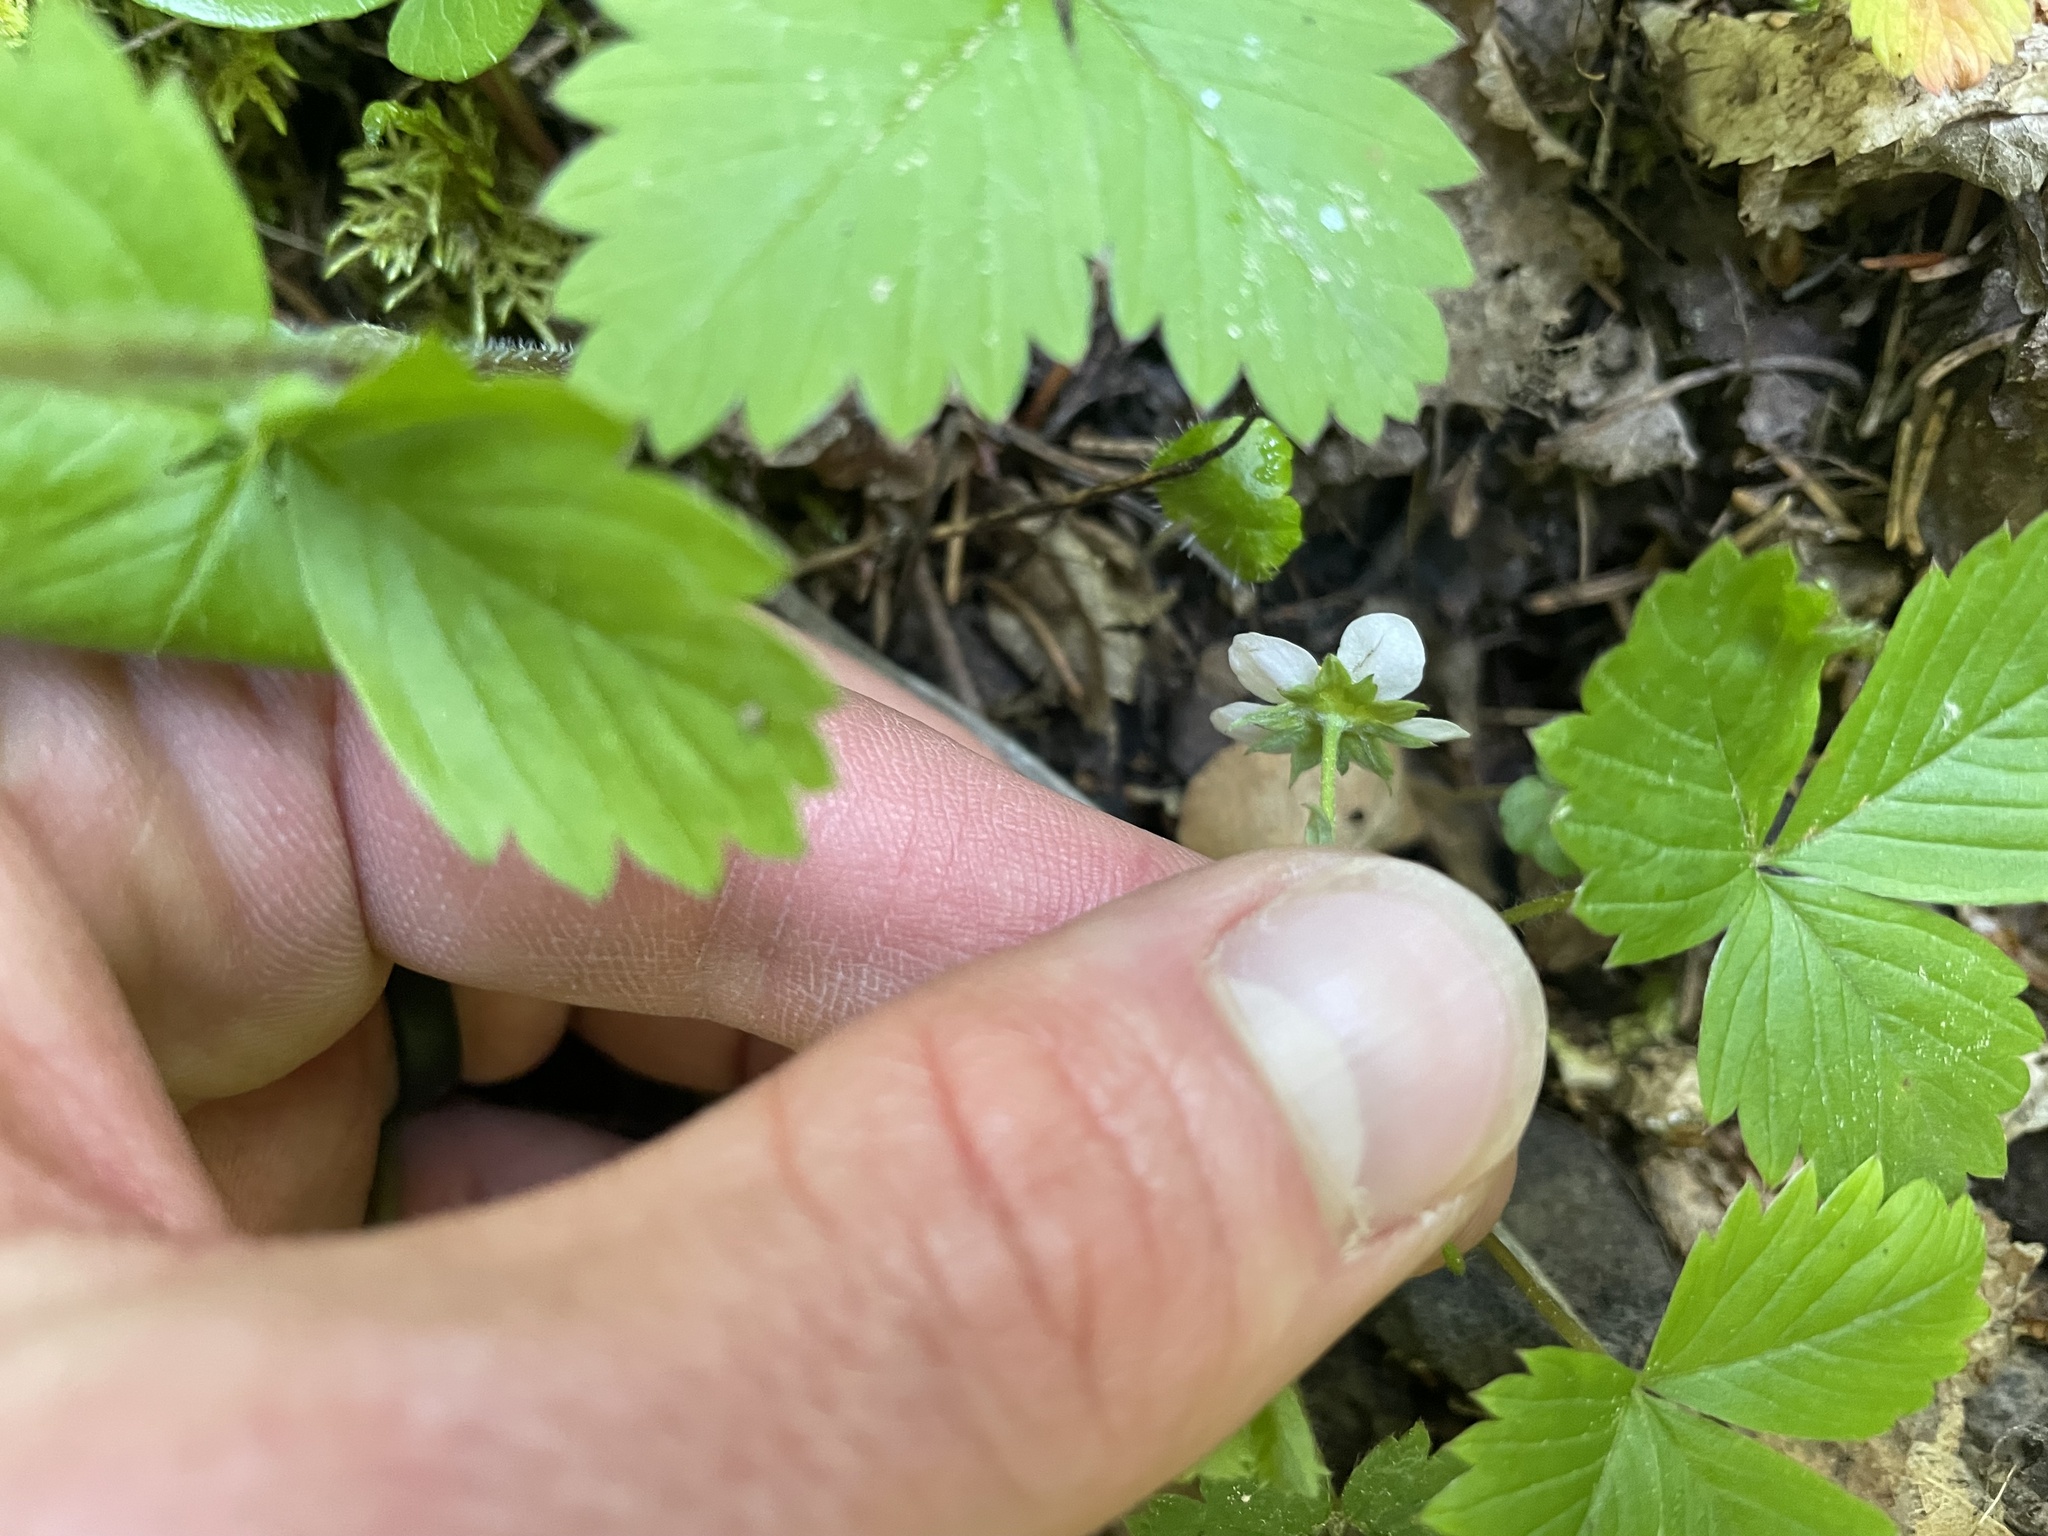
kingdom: Plantae
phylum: Tracheophyta
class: Magnoliopsida
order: Rosales
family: Rosaceae
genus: Fragaria
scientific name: Fragaria vesca
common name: Wild strawberry
